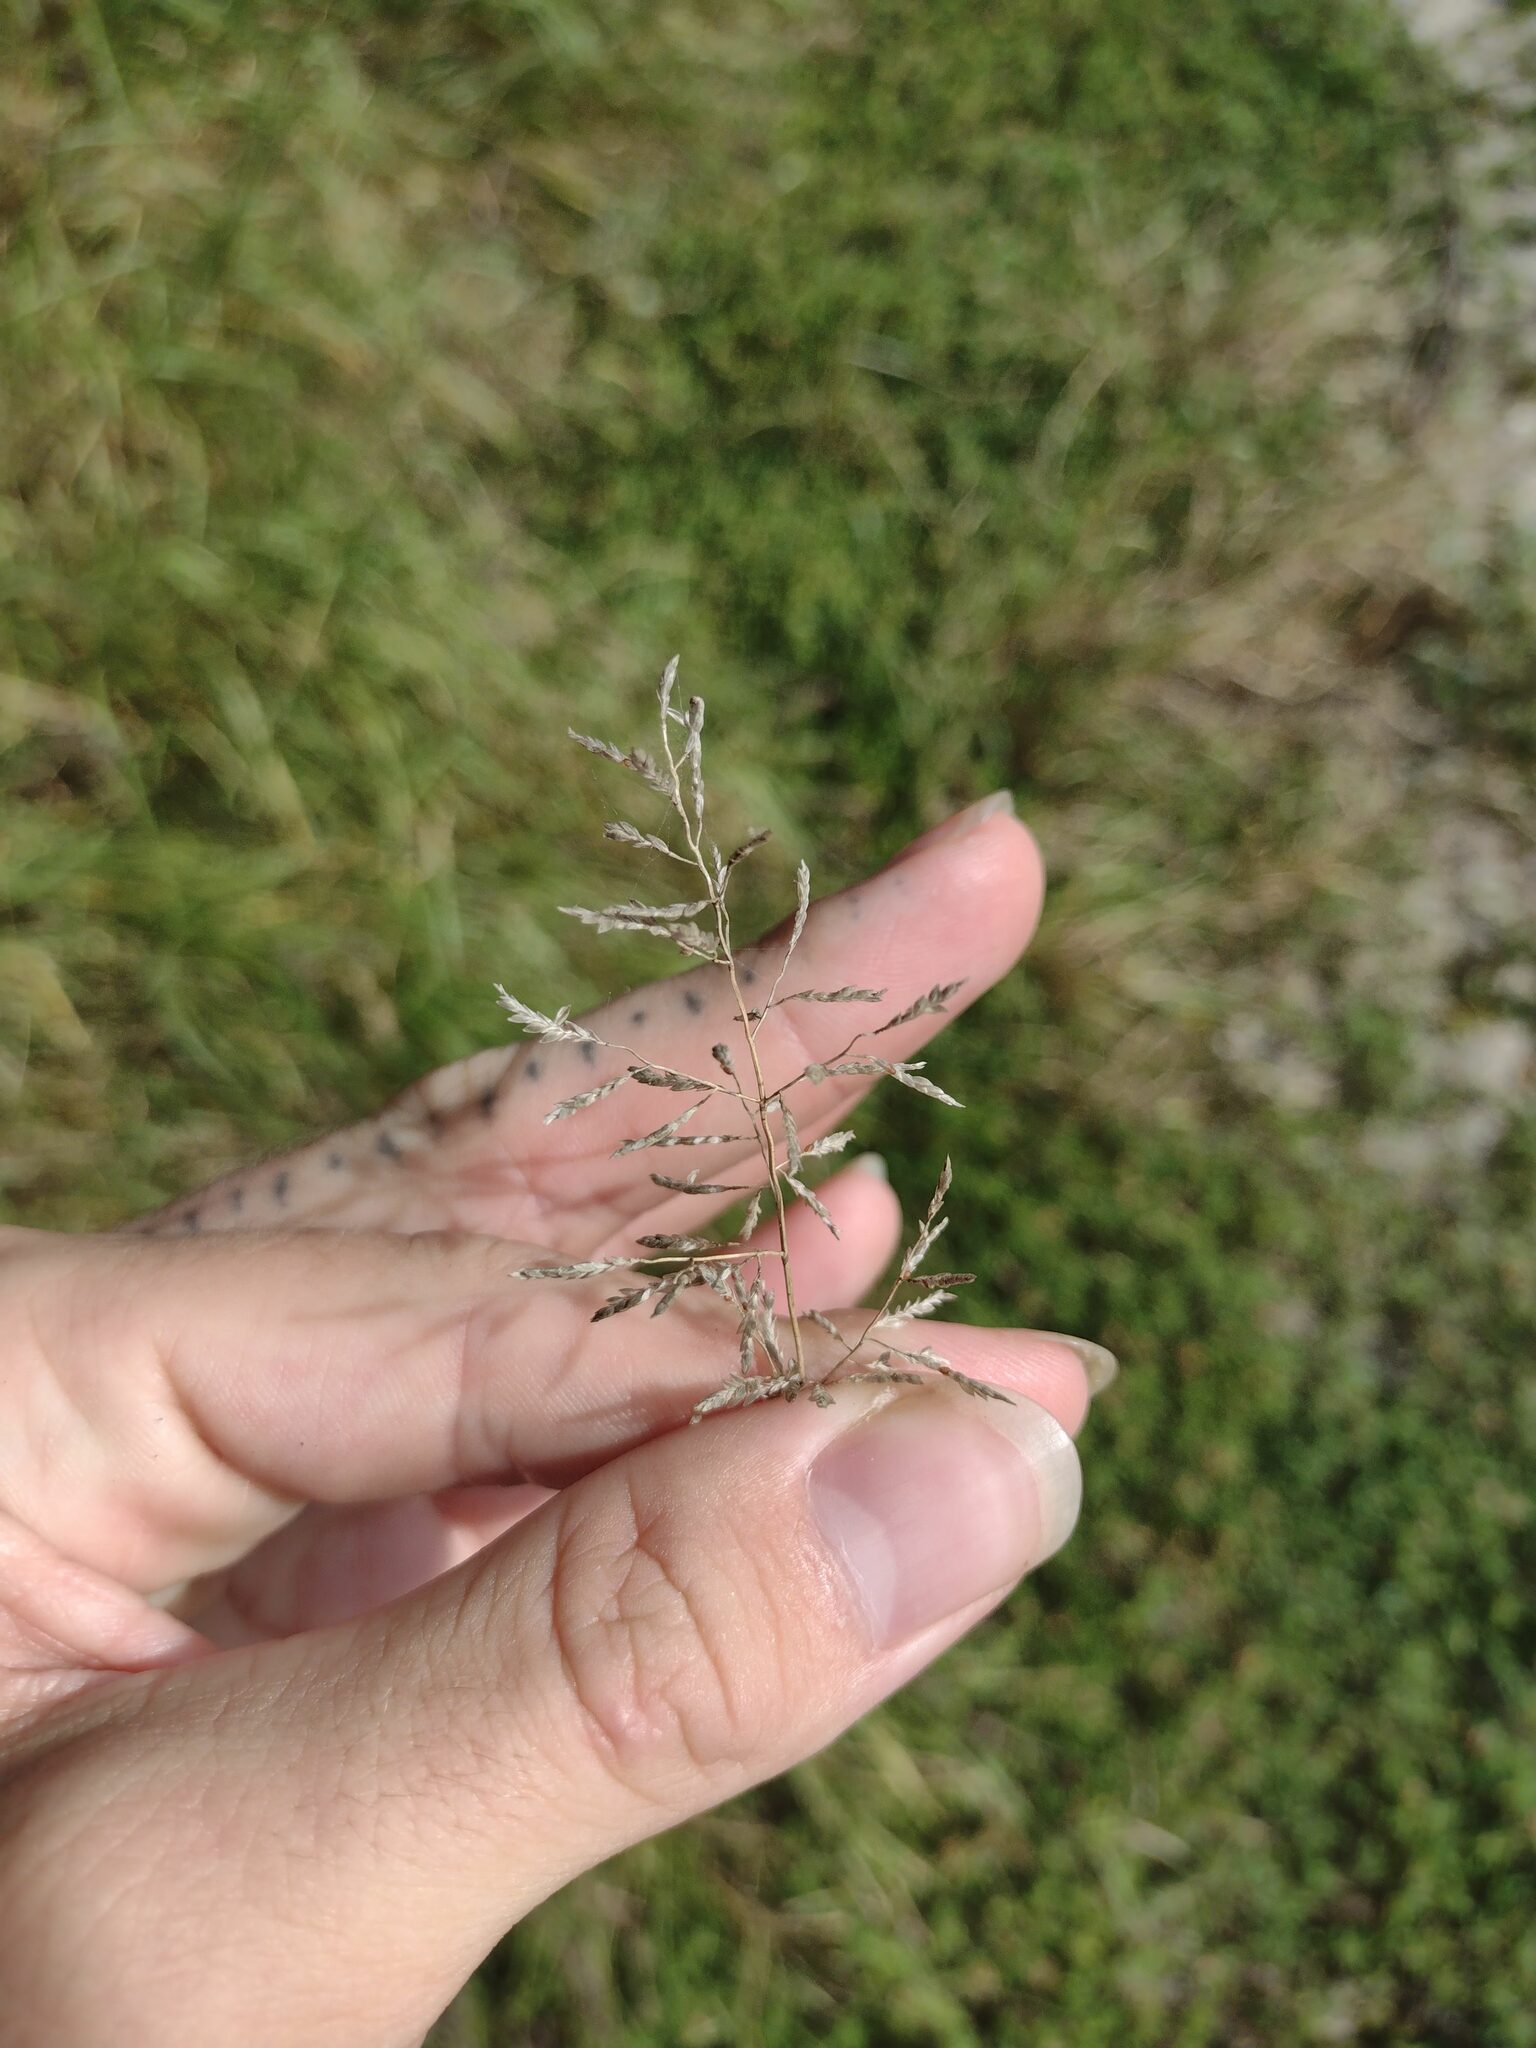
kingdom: Plantae
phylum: Tracheophyta
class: Liliopsida
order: Poales
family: Poaceae
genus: Eragrostis
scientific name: Eragrostis barrelieri
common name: Mediterranean lovegrass
